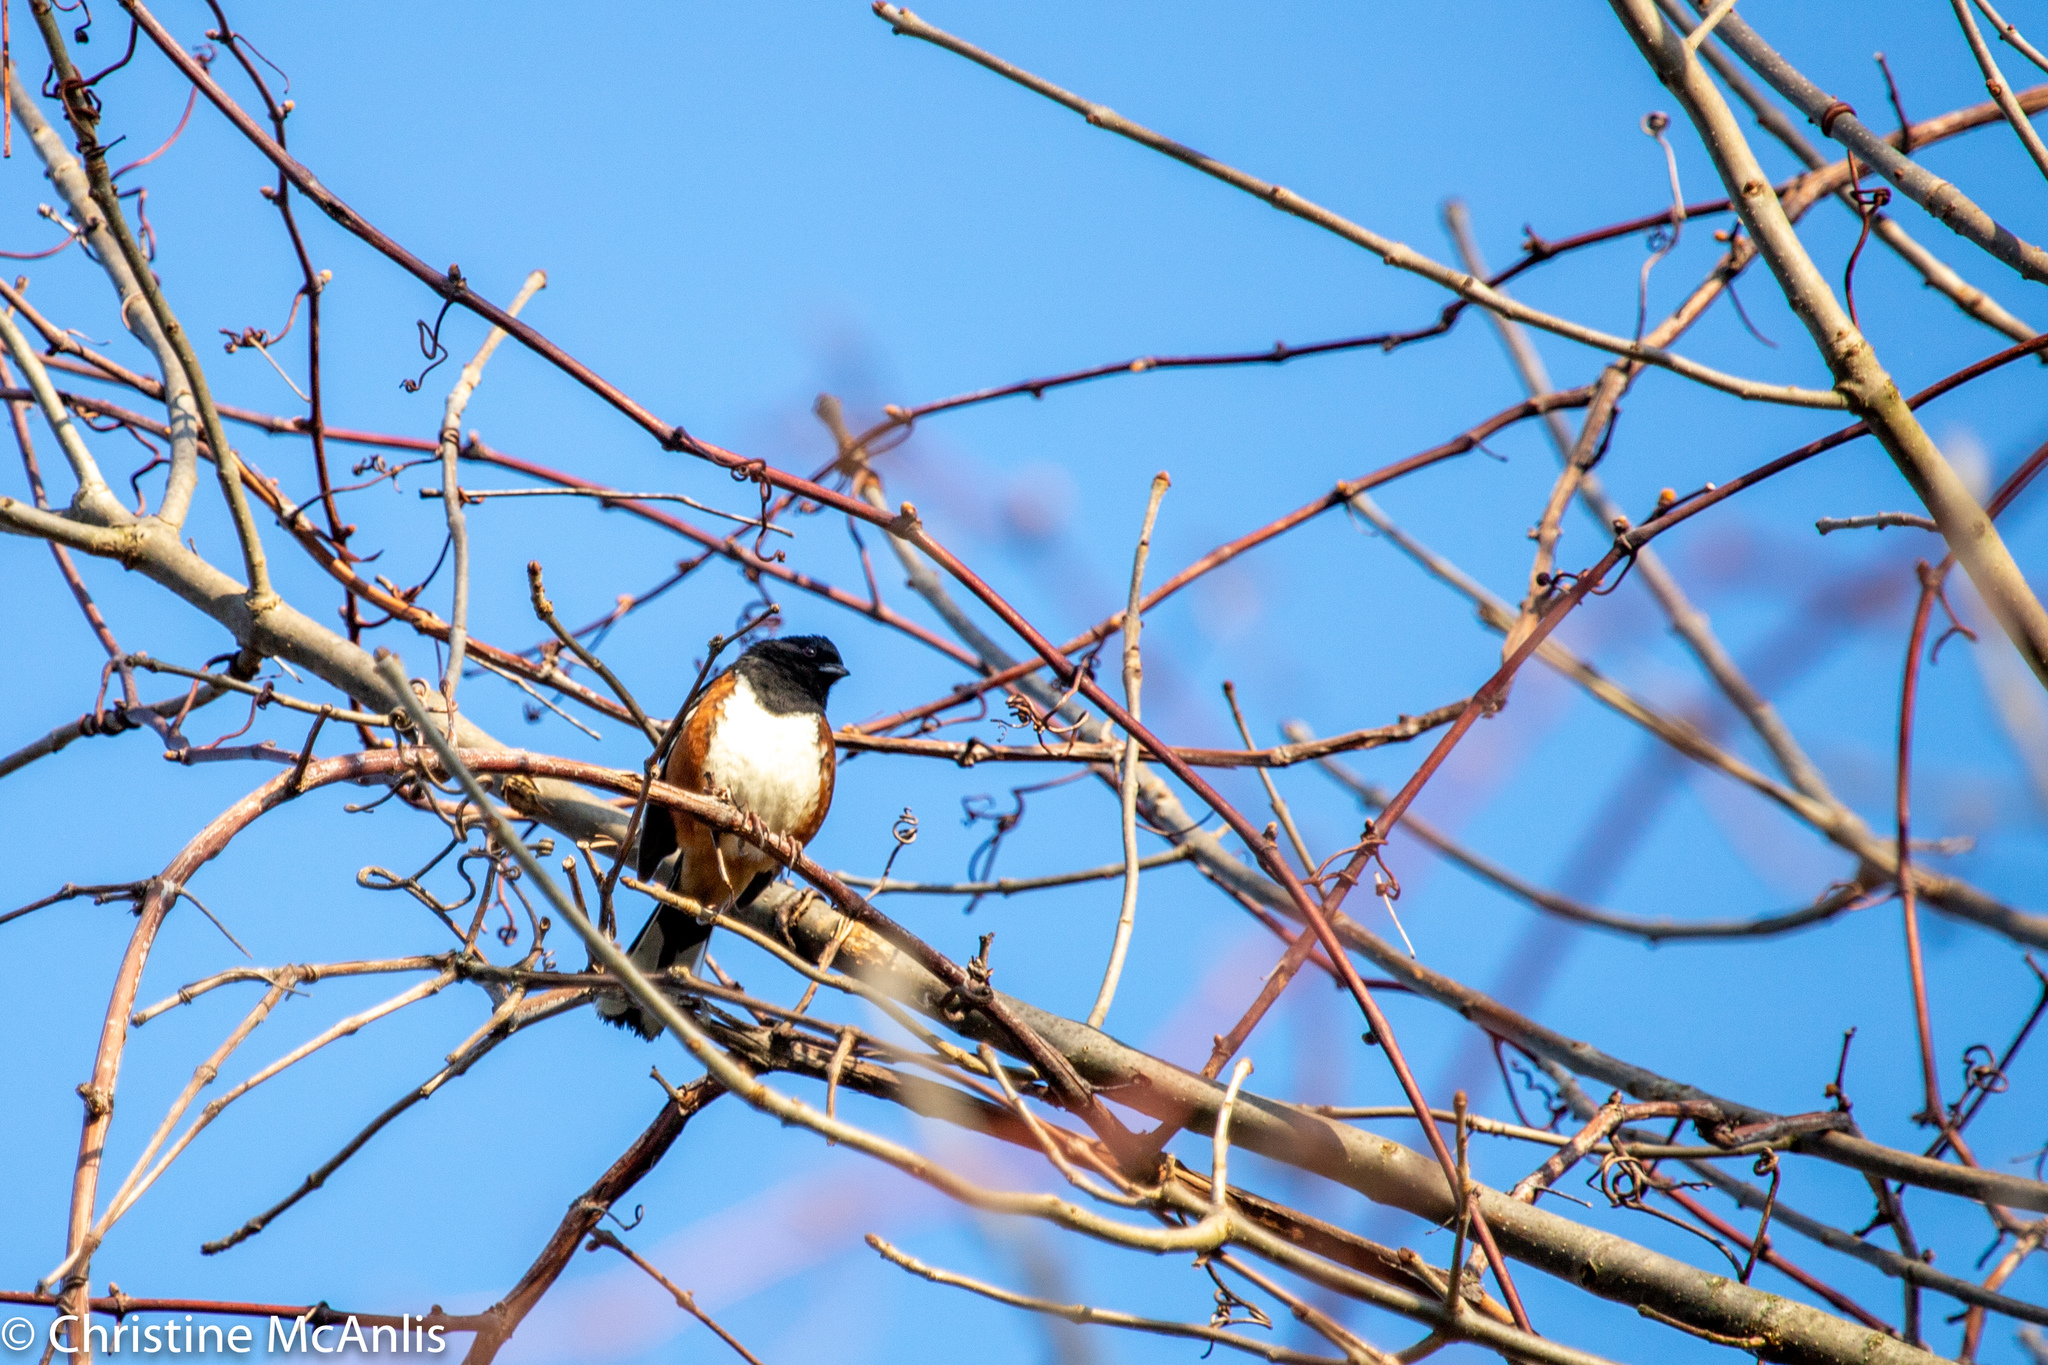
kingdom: Animalia
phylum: Chordata
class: Aves
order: Passeriformes
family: Passerellidae
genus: Pipilo
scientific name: Pipilo erythrophthalmus
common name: Eastern towhee
